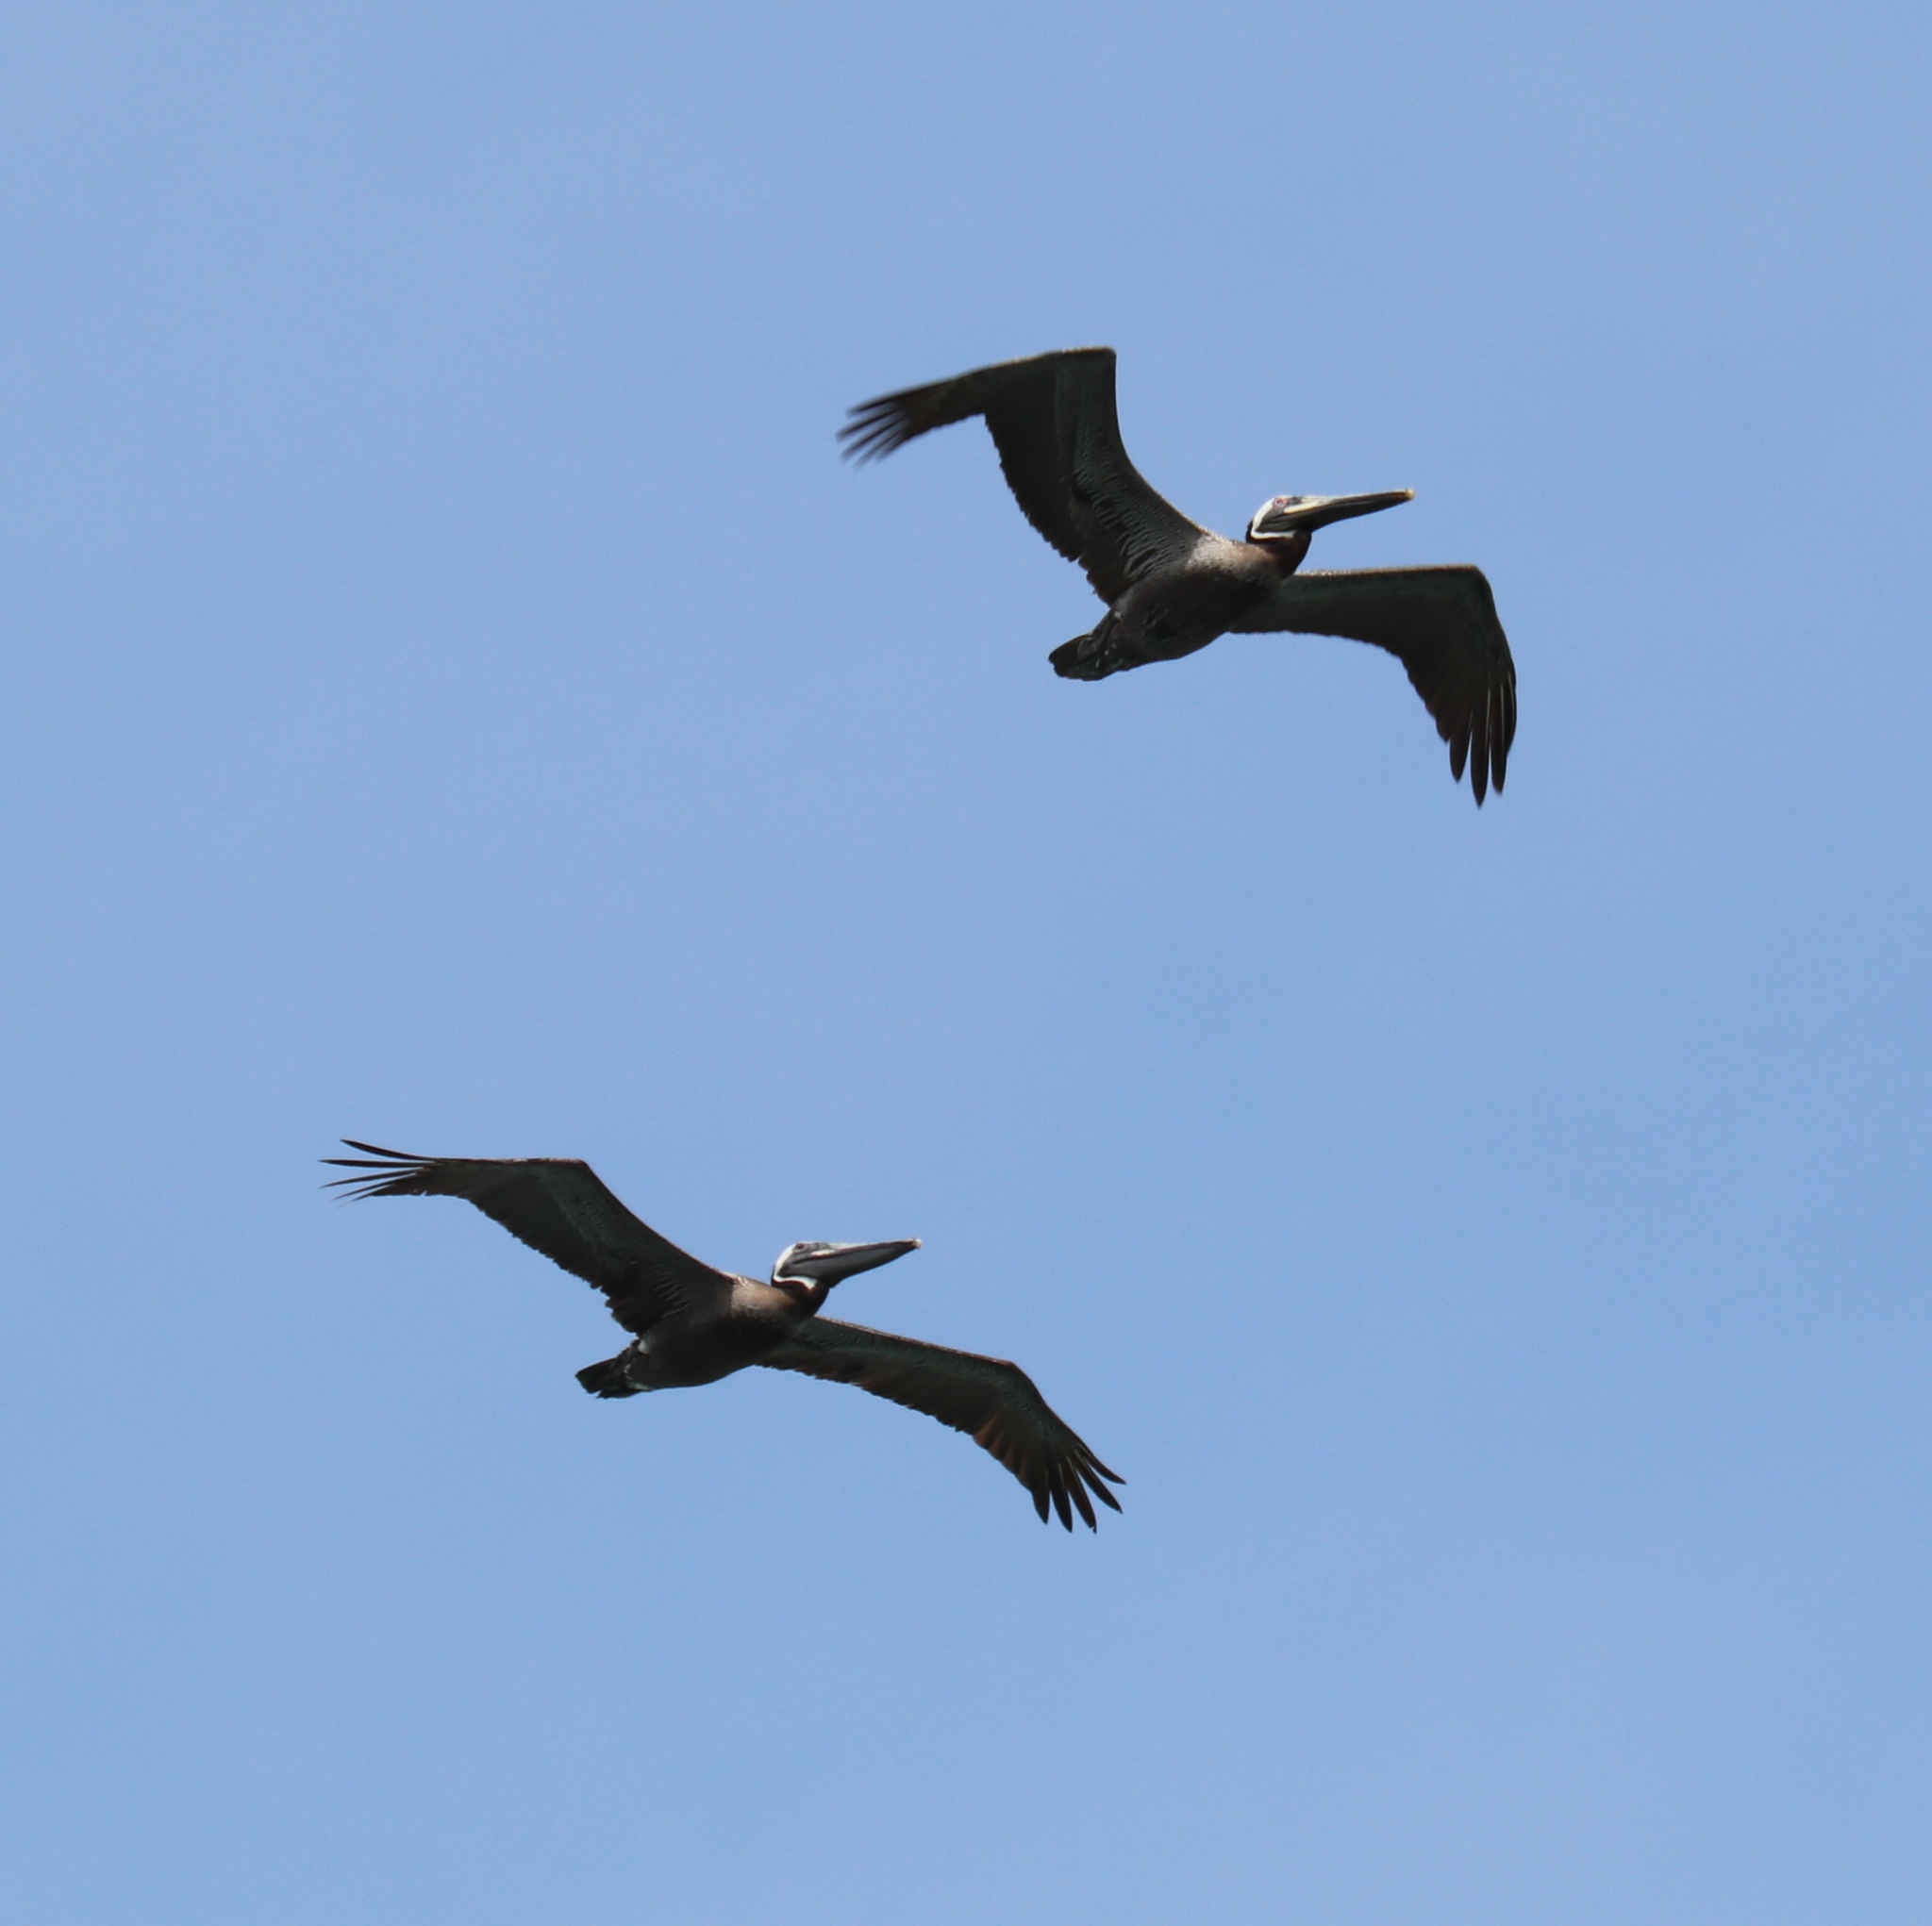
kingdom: Animalia
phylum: Chordata
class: Aves
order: Pelecaniformes
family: Pelecanidae
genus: Pelecanus
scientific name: Pelecanus occidentalis
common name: Brown pelican
